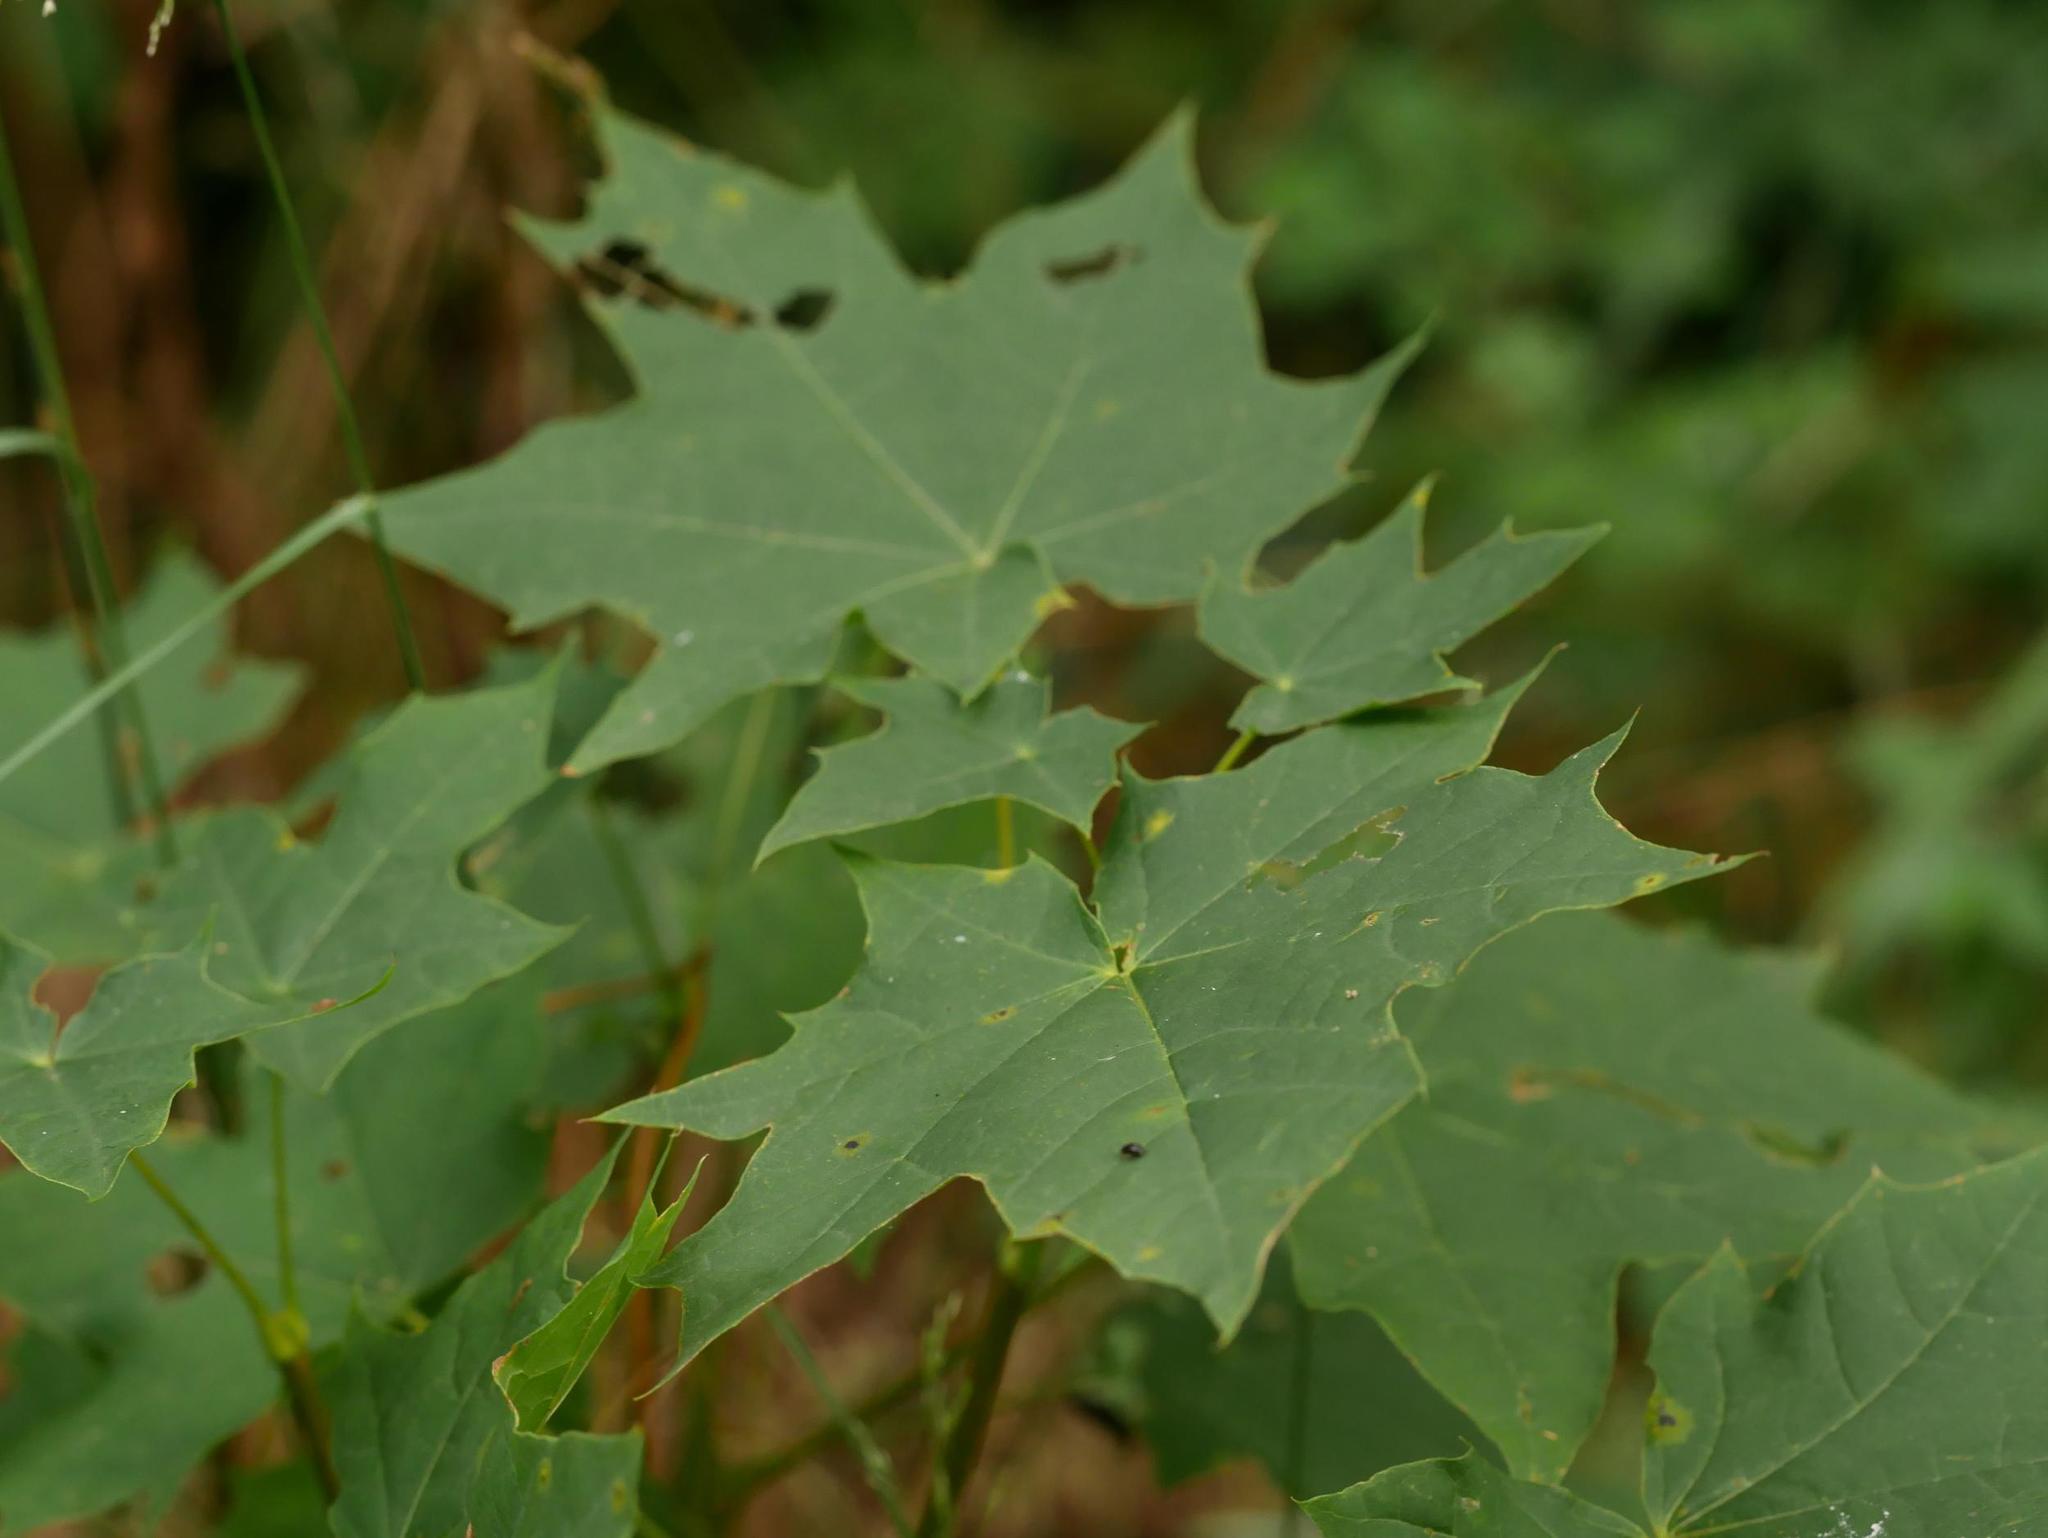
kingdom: Plantae
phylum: Tracheophyta
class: Magnoliopsida
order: Sapindales
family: Sapindaceae
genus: Acer
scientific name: Acer platanoides
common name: Norway maple
